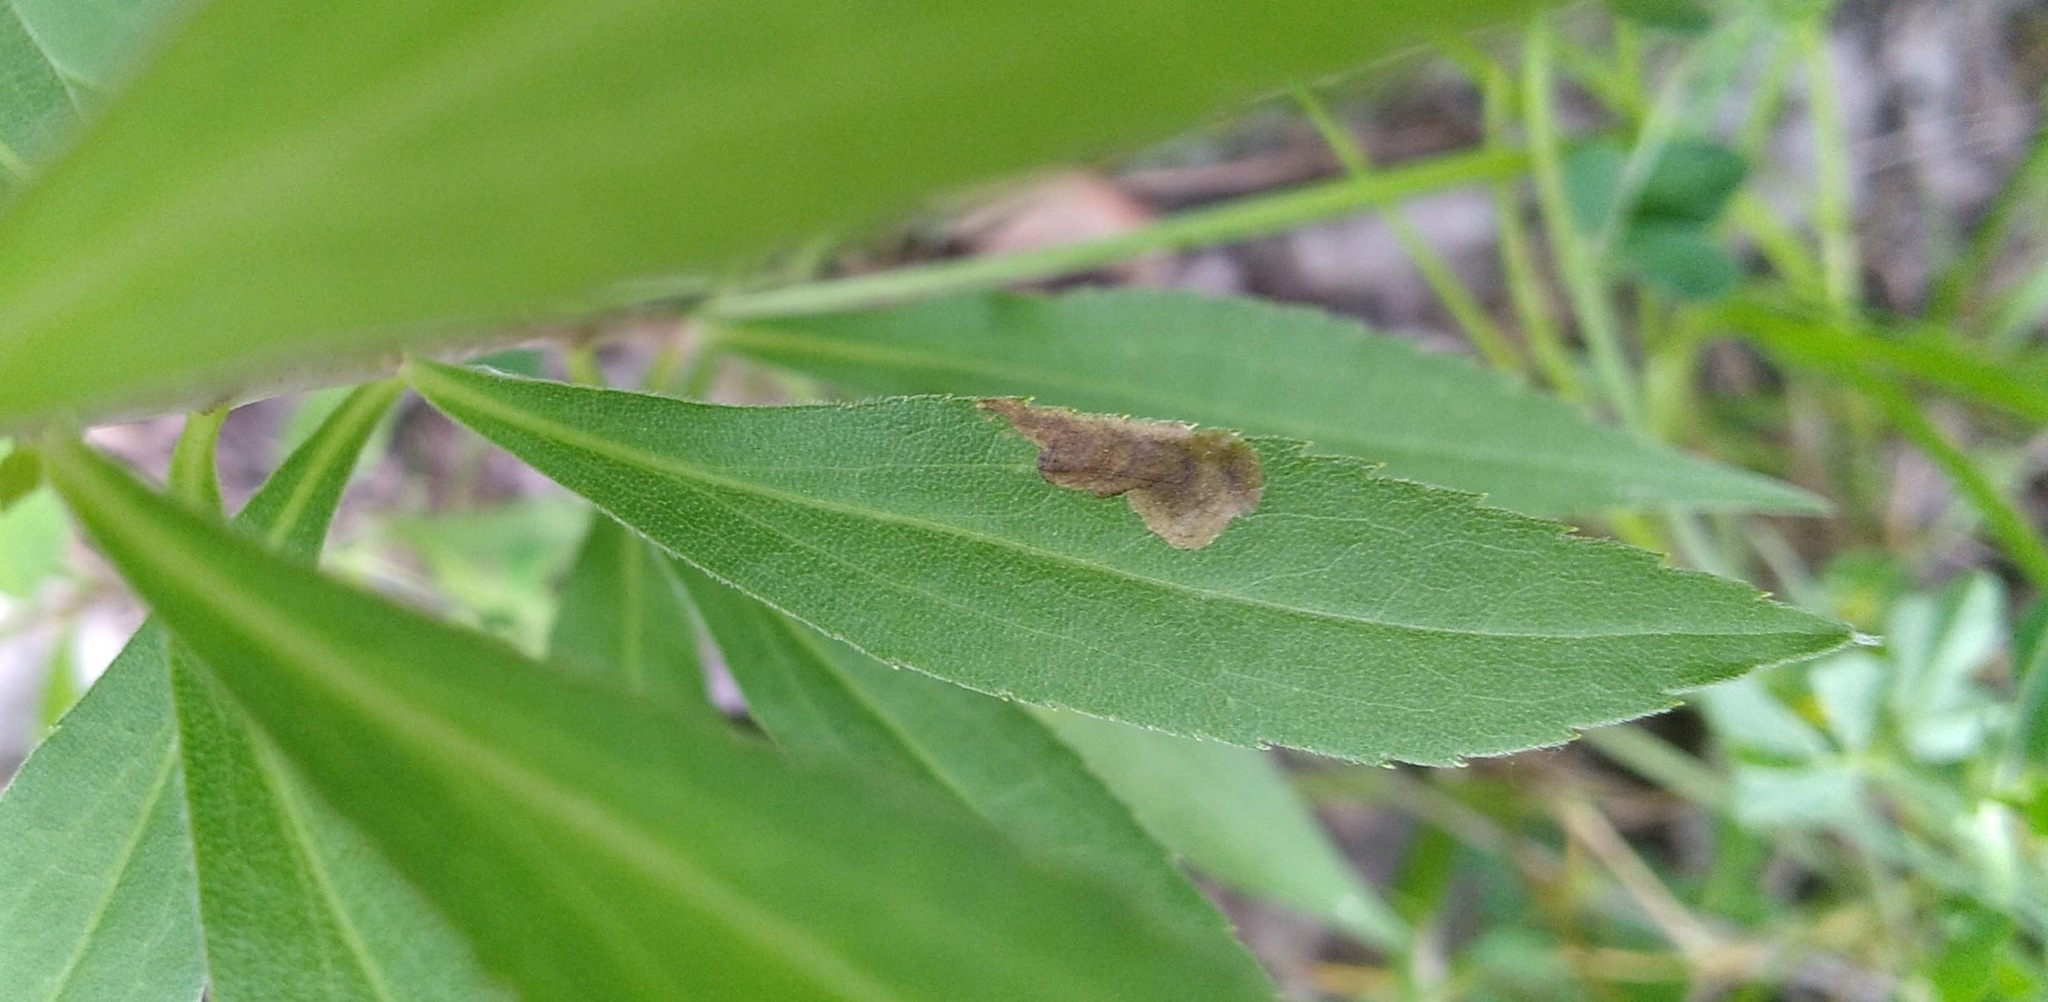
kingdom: Animalia
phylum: Arthropoda
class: Insecta
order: Diptera
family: Agromyzidae
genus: Nemorimyza
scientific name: Nemorimyza posticata
